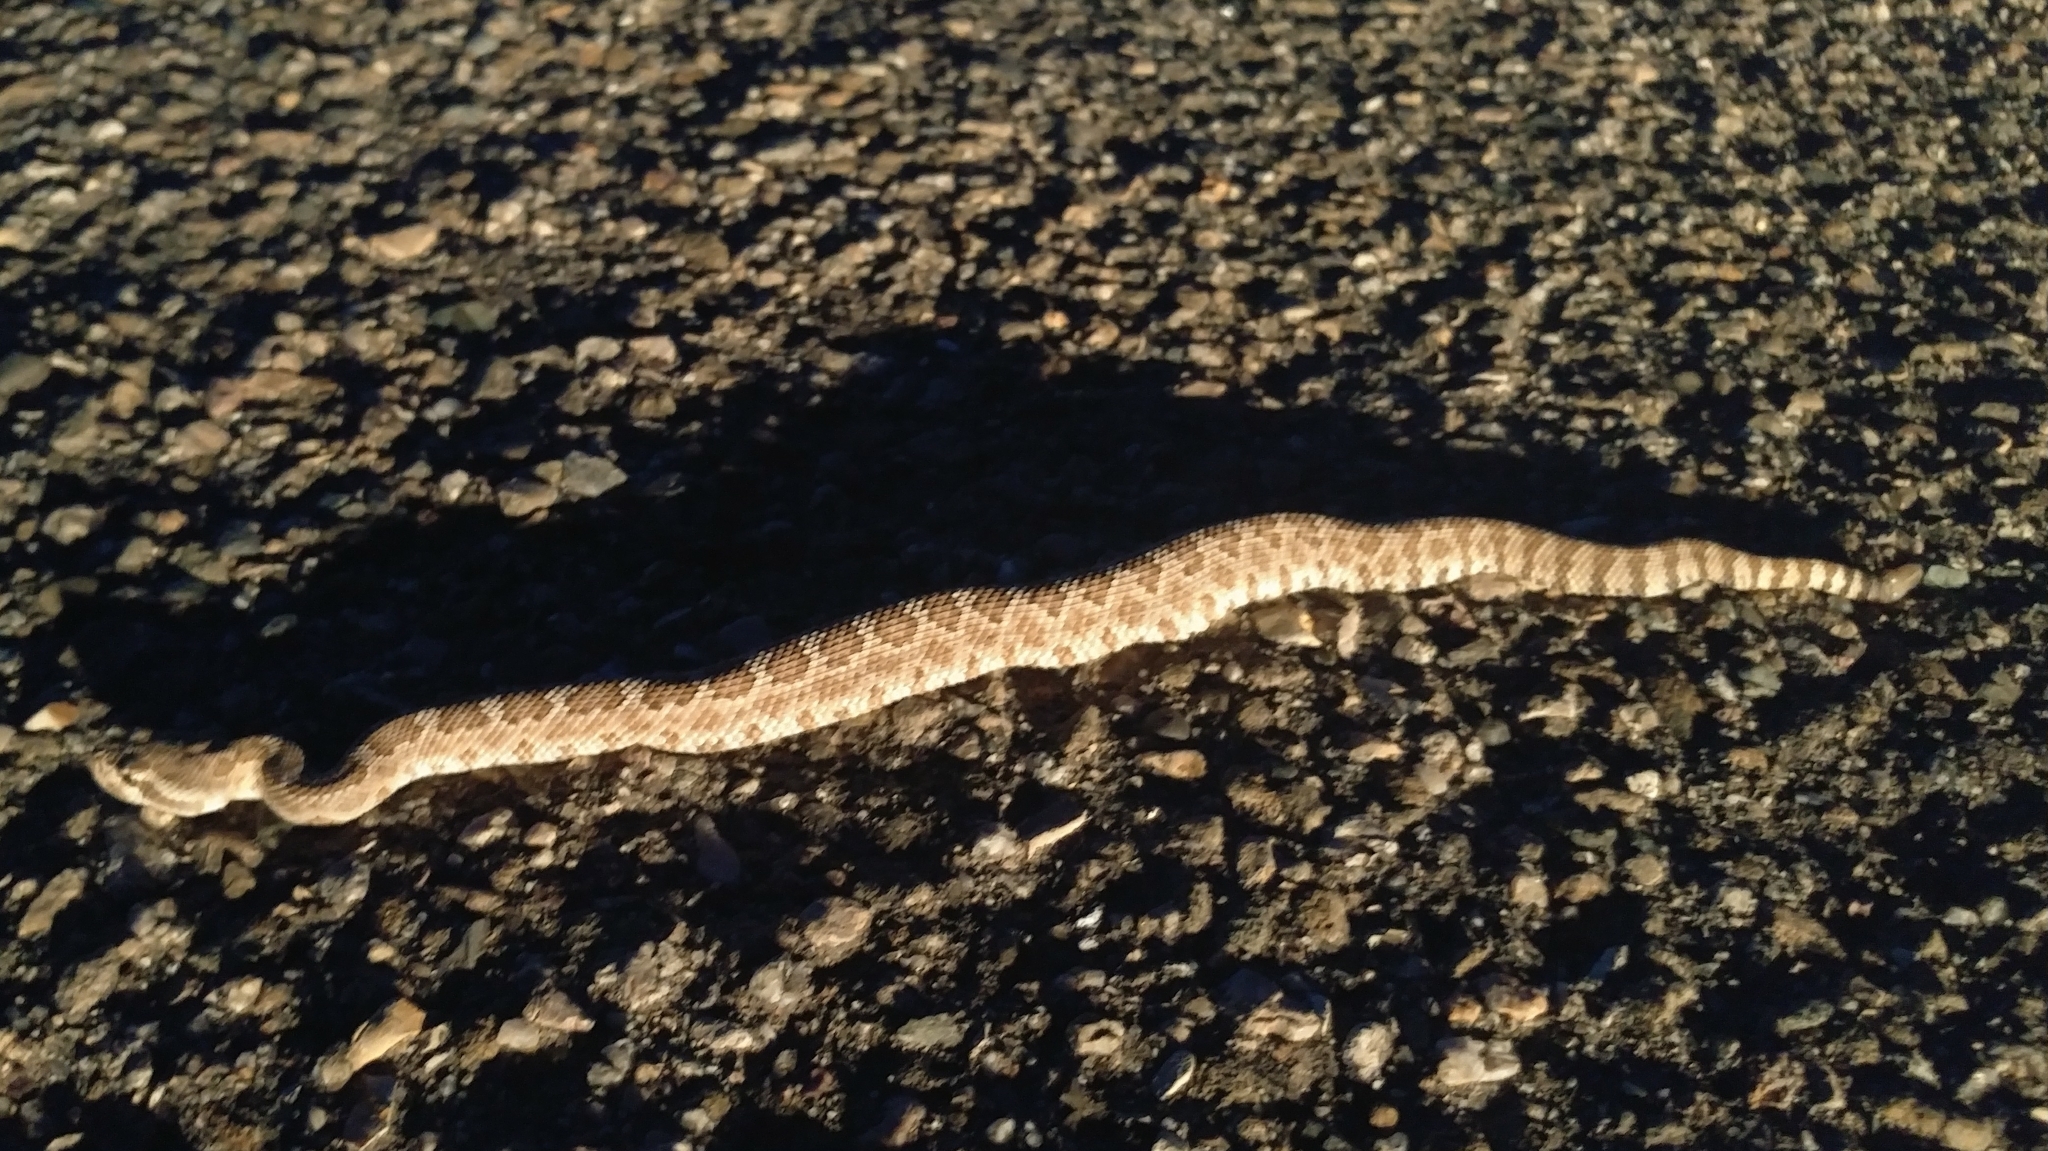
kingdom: Animalia
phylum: Chordata
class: Squamata
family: Viperidae
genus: Crotalus
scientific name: Crotalus oreganus
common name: Abyssus
